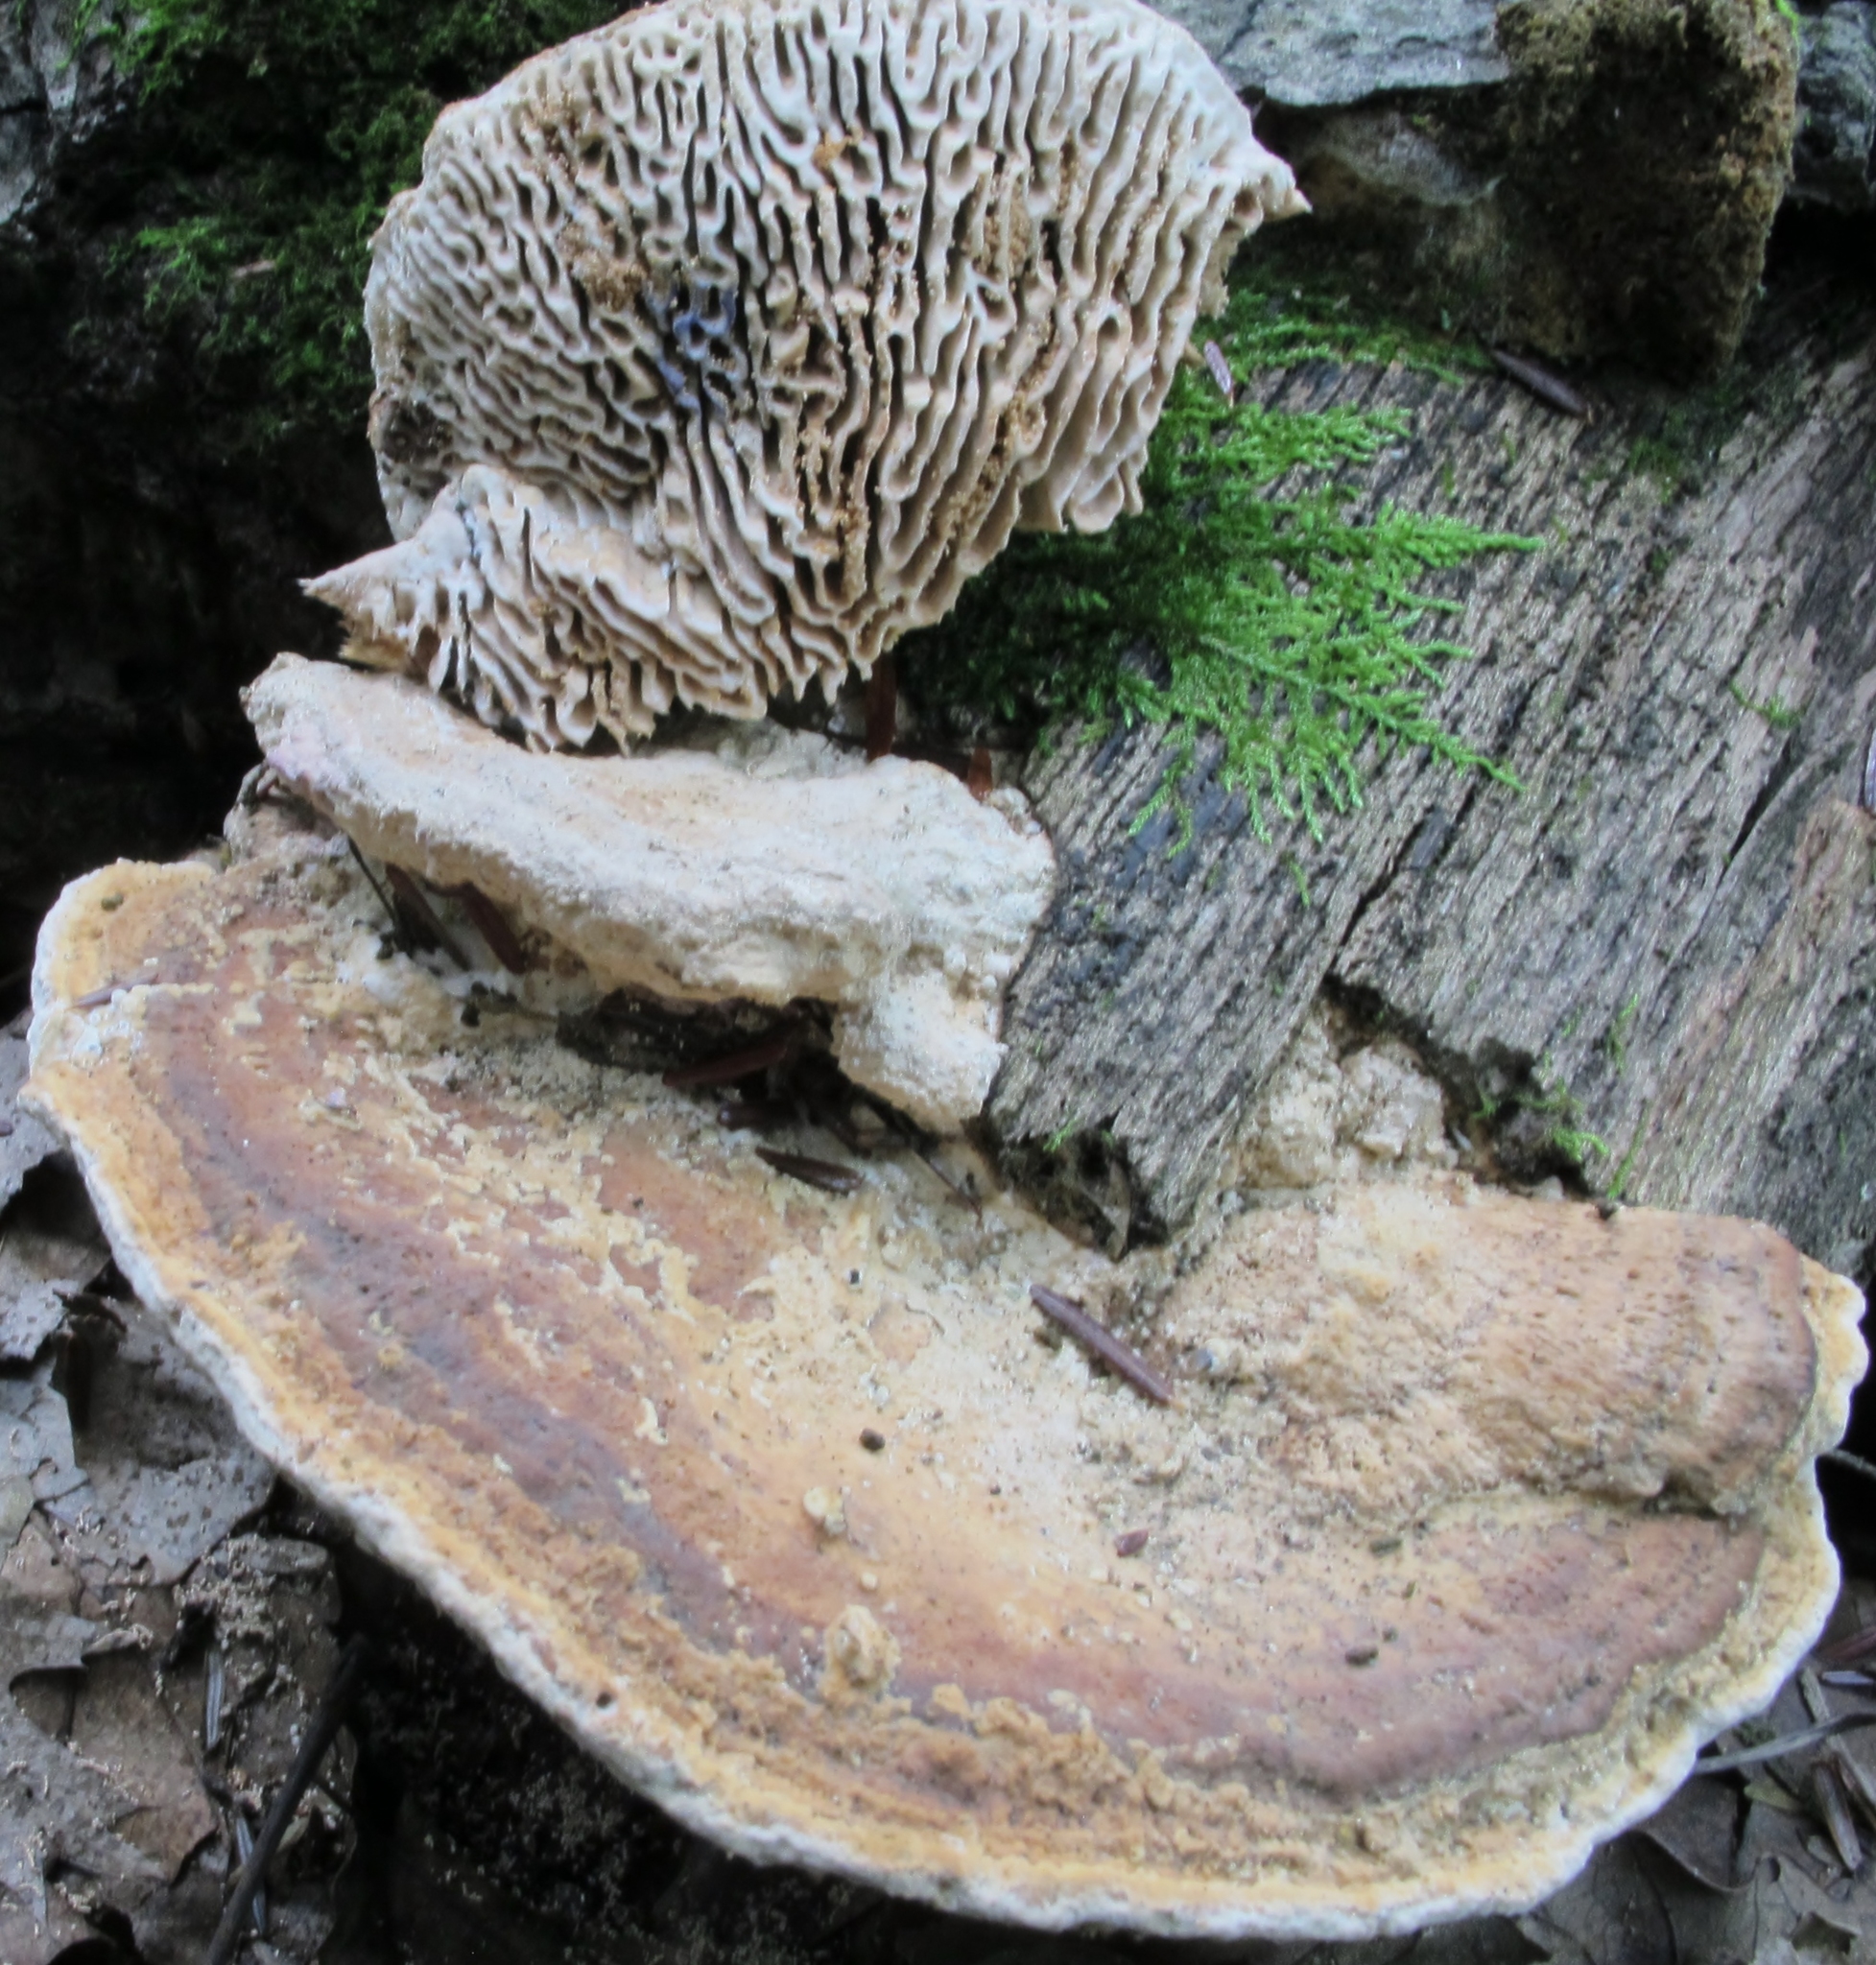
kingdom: Fungi
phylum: Basidiomycota
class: Agaricomycetes
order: Polyporales
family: Fomitopsidaceae
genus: Fomitopsis
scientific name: Fomitopsis
